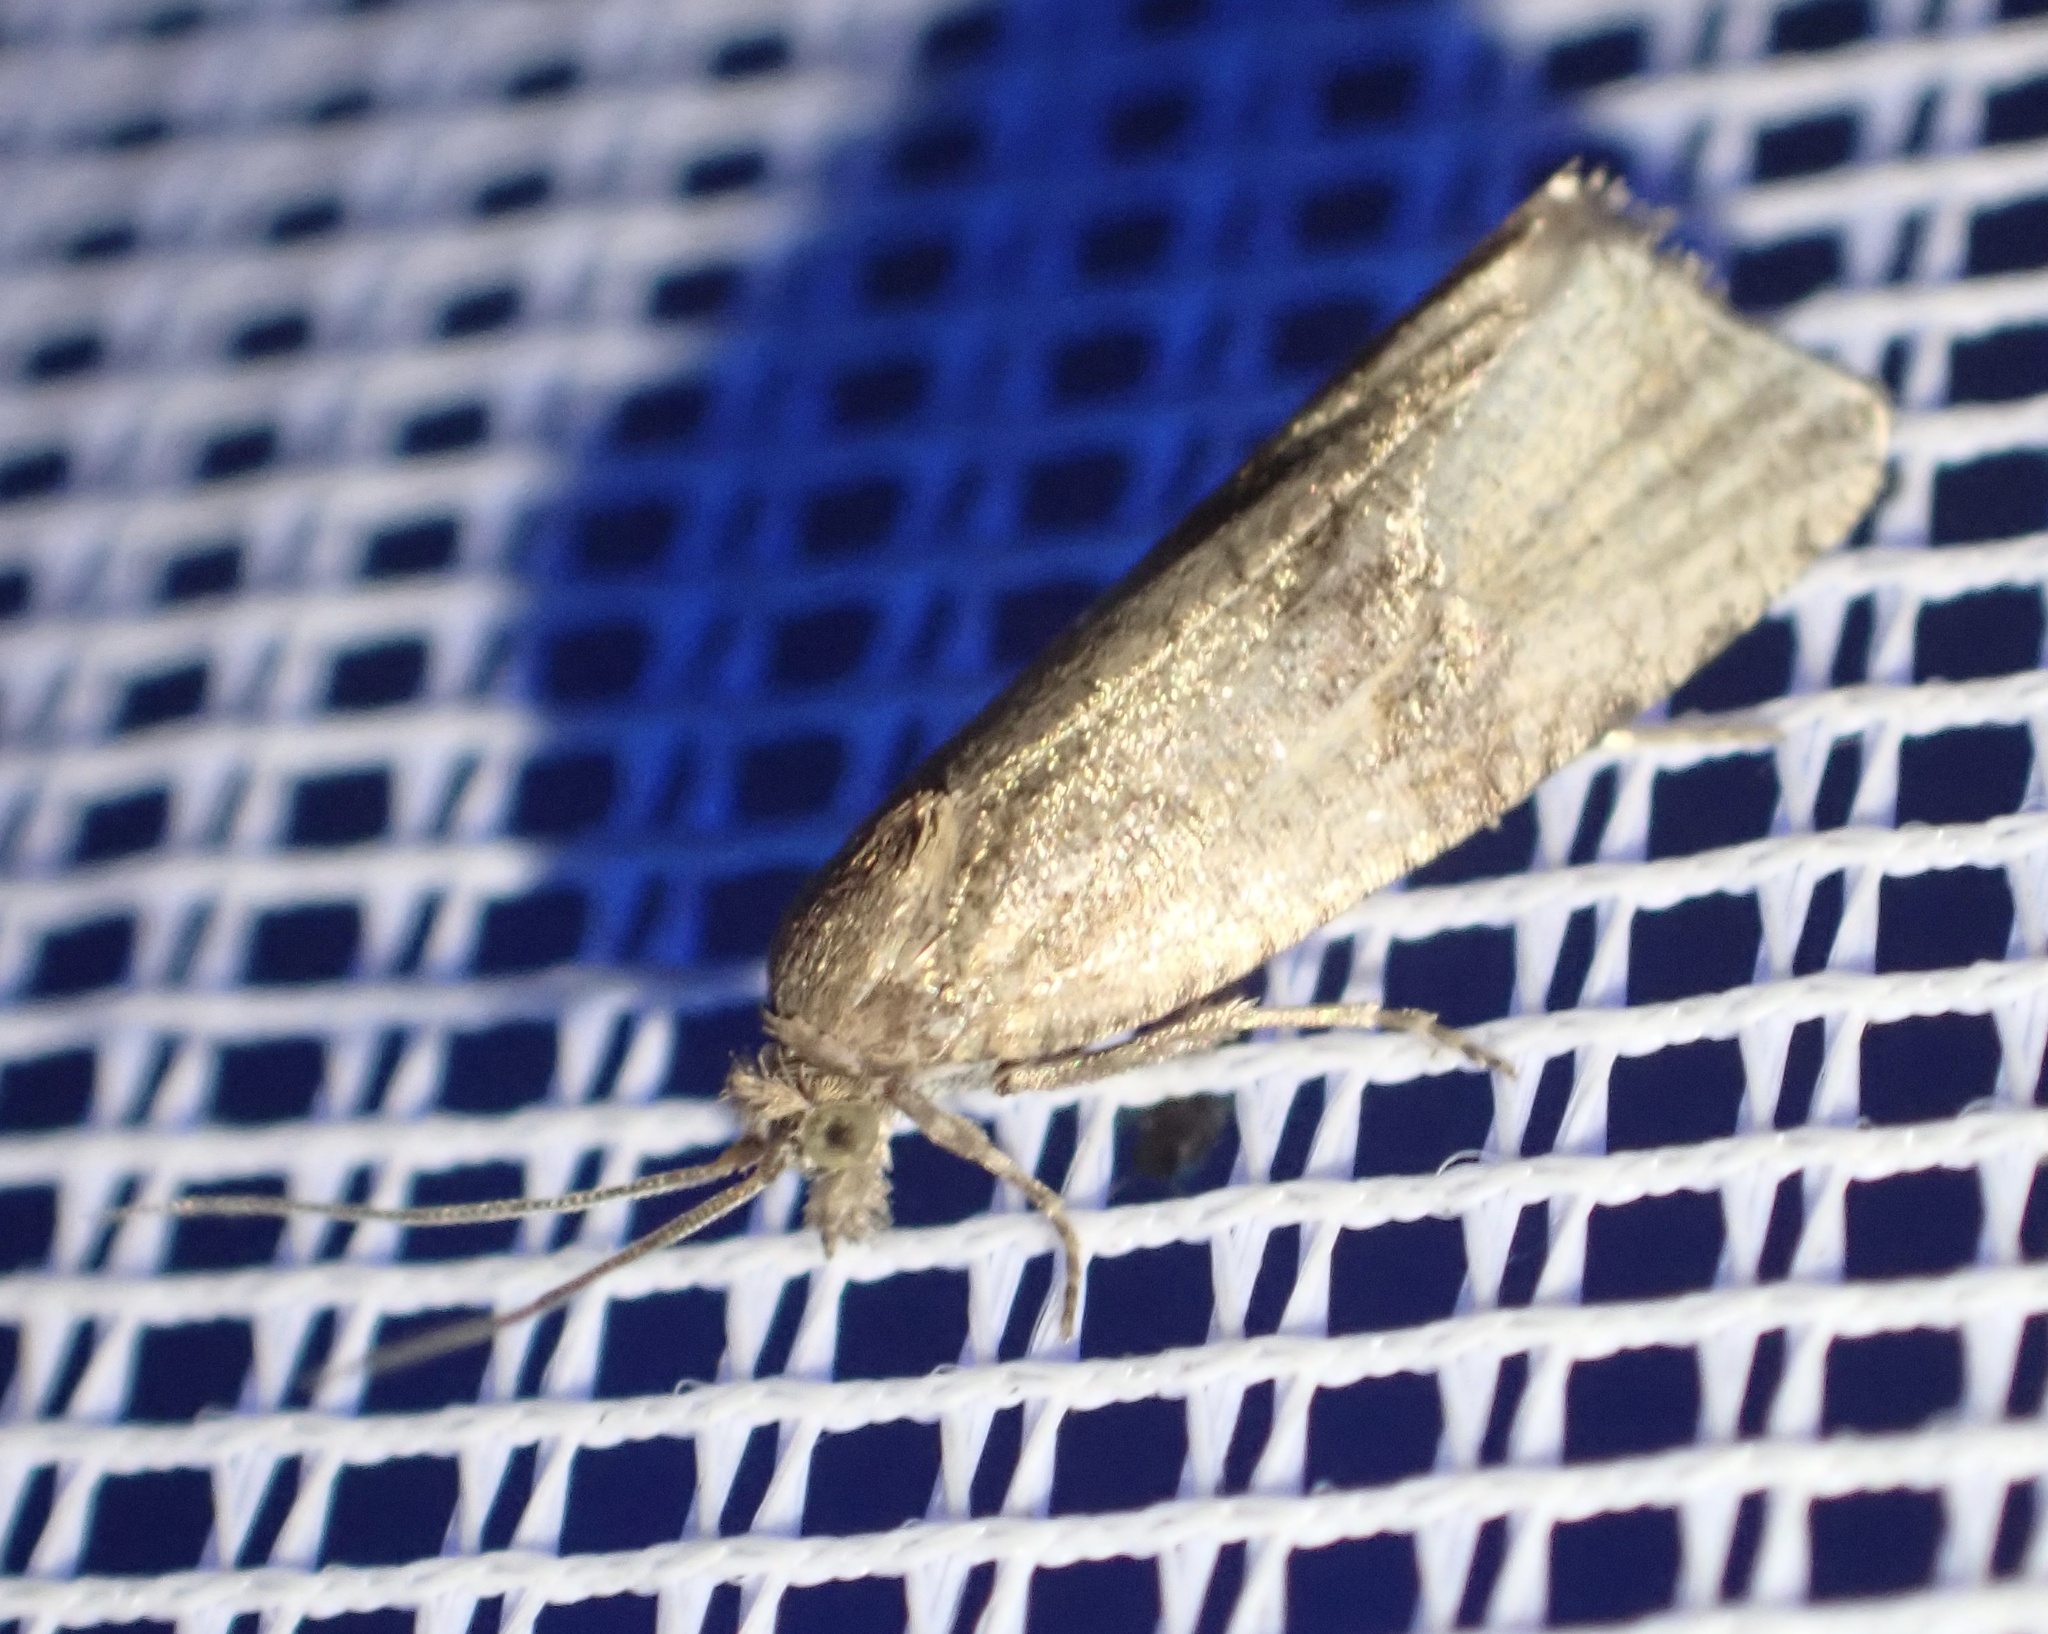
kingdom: Animalia
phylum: Arthropoda
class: Insecta
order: Lepidoptera
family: Tortricidae
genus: Celypha
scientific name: Celypha striana
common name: Barred marble
